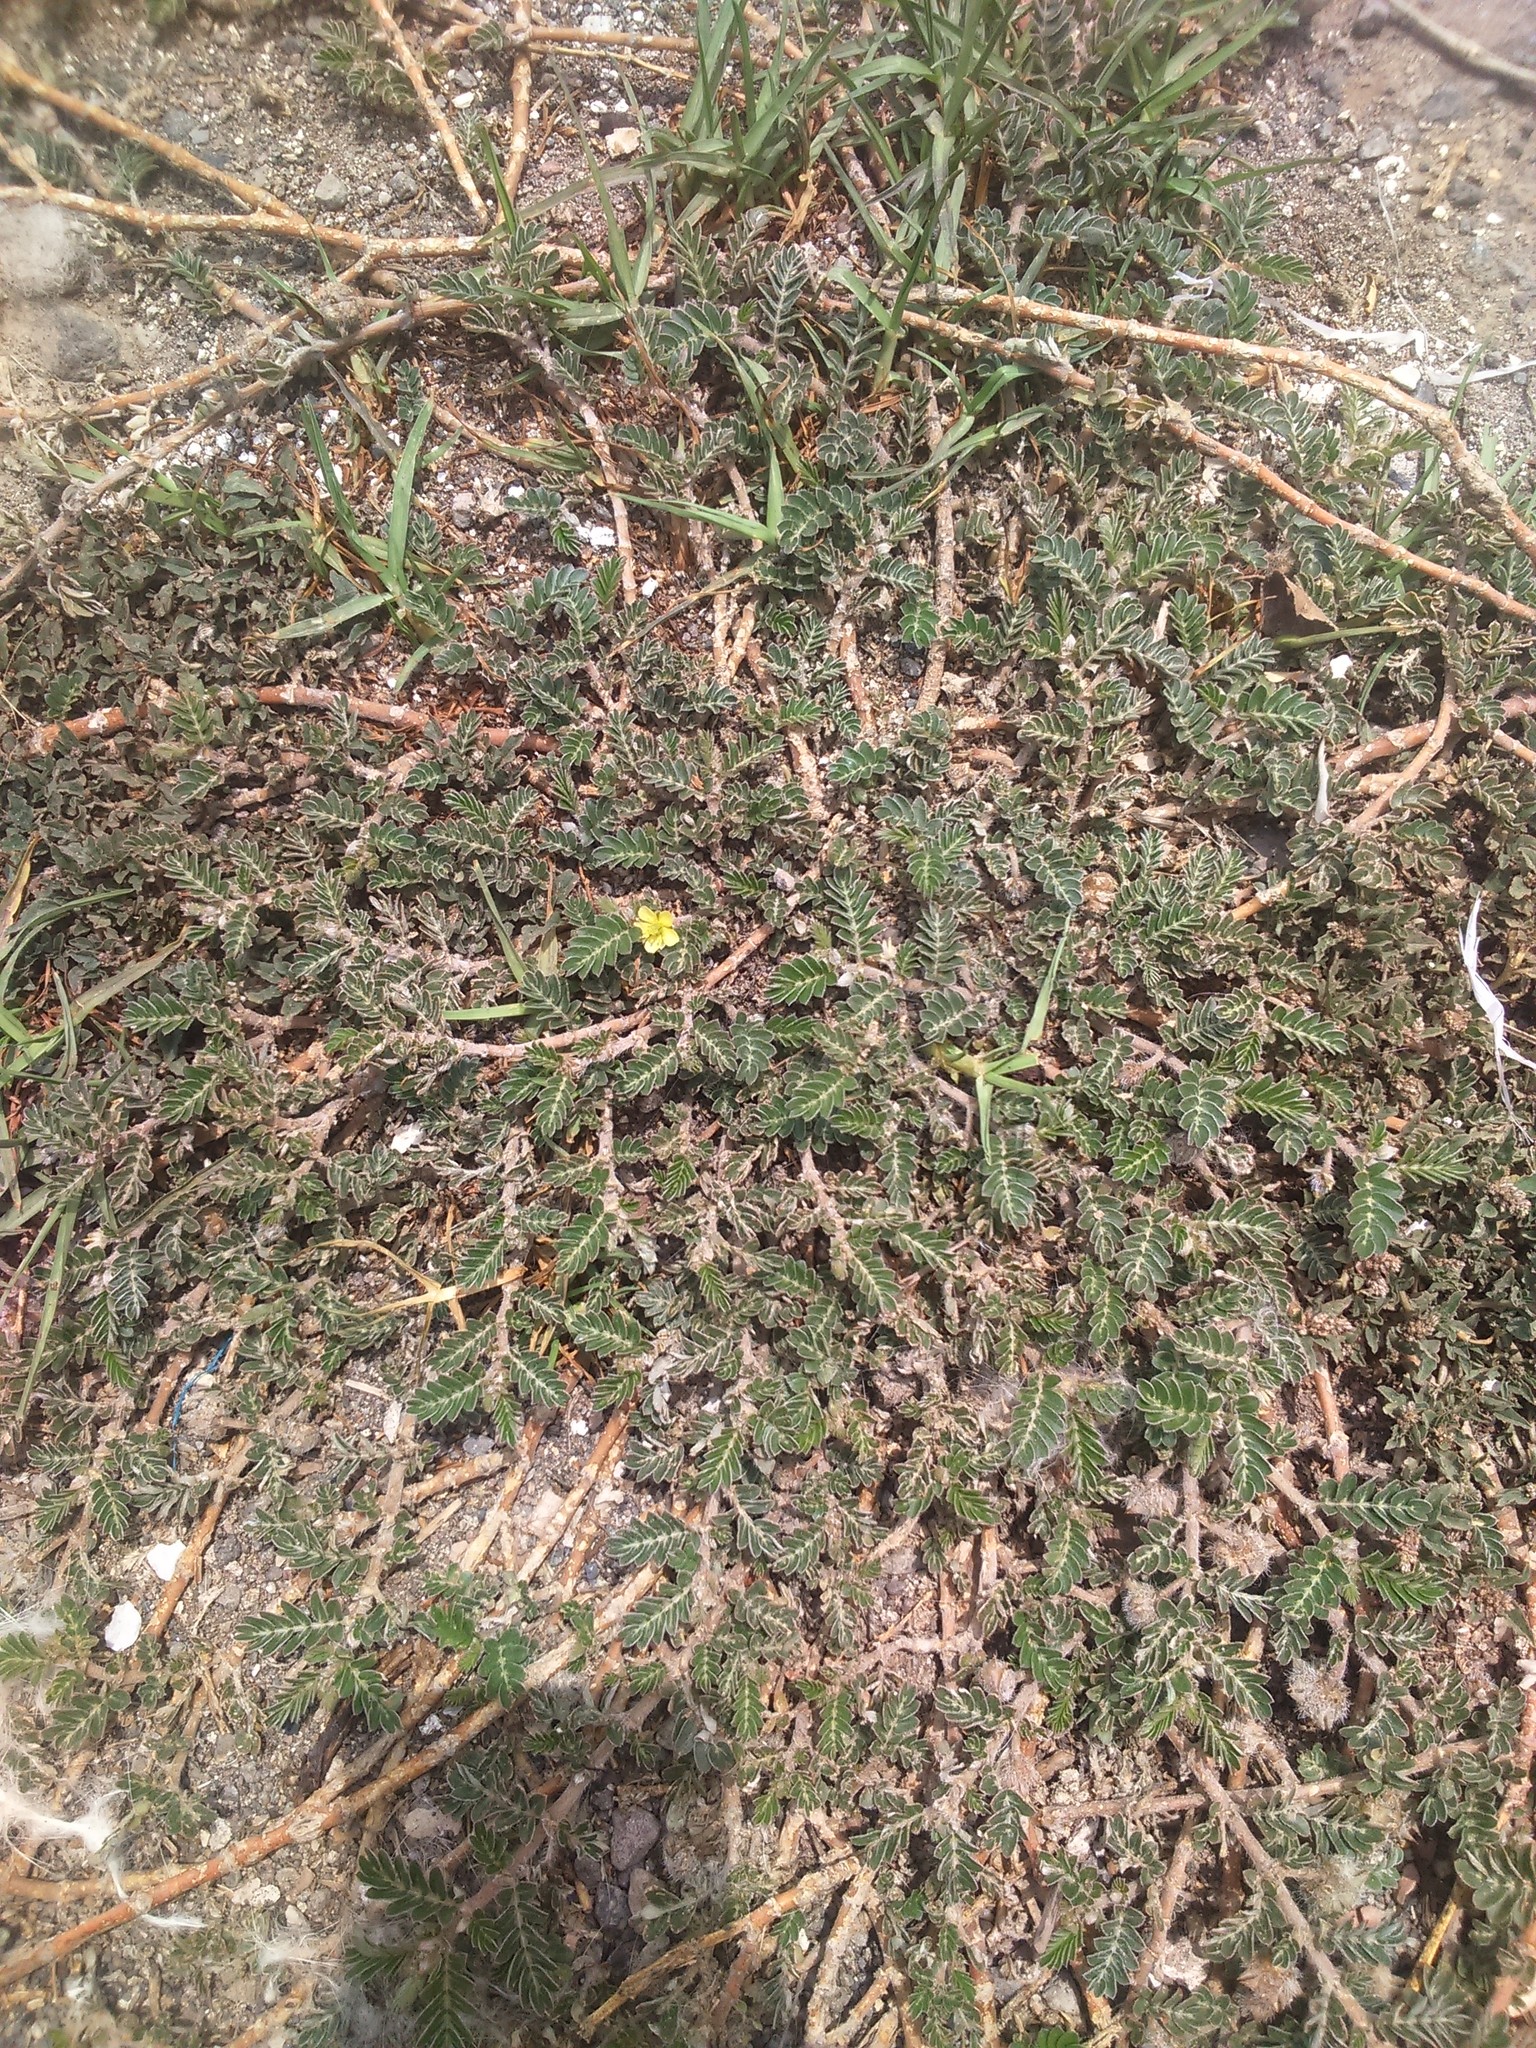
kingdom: Plantae
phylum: Tracheophyta
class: Magnoliopsida
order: Zygophyllales
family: Zygophyllaceae
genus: Tribulus
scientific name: Tribulus terrestris
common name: Puncturevine
